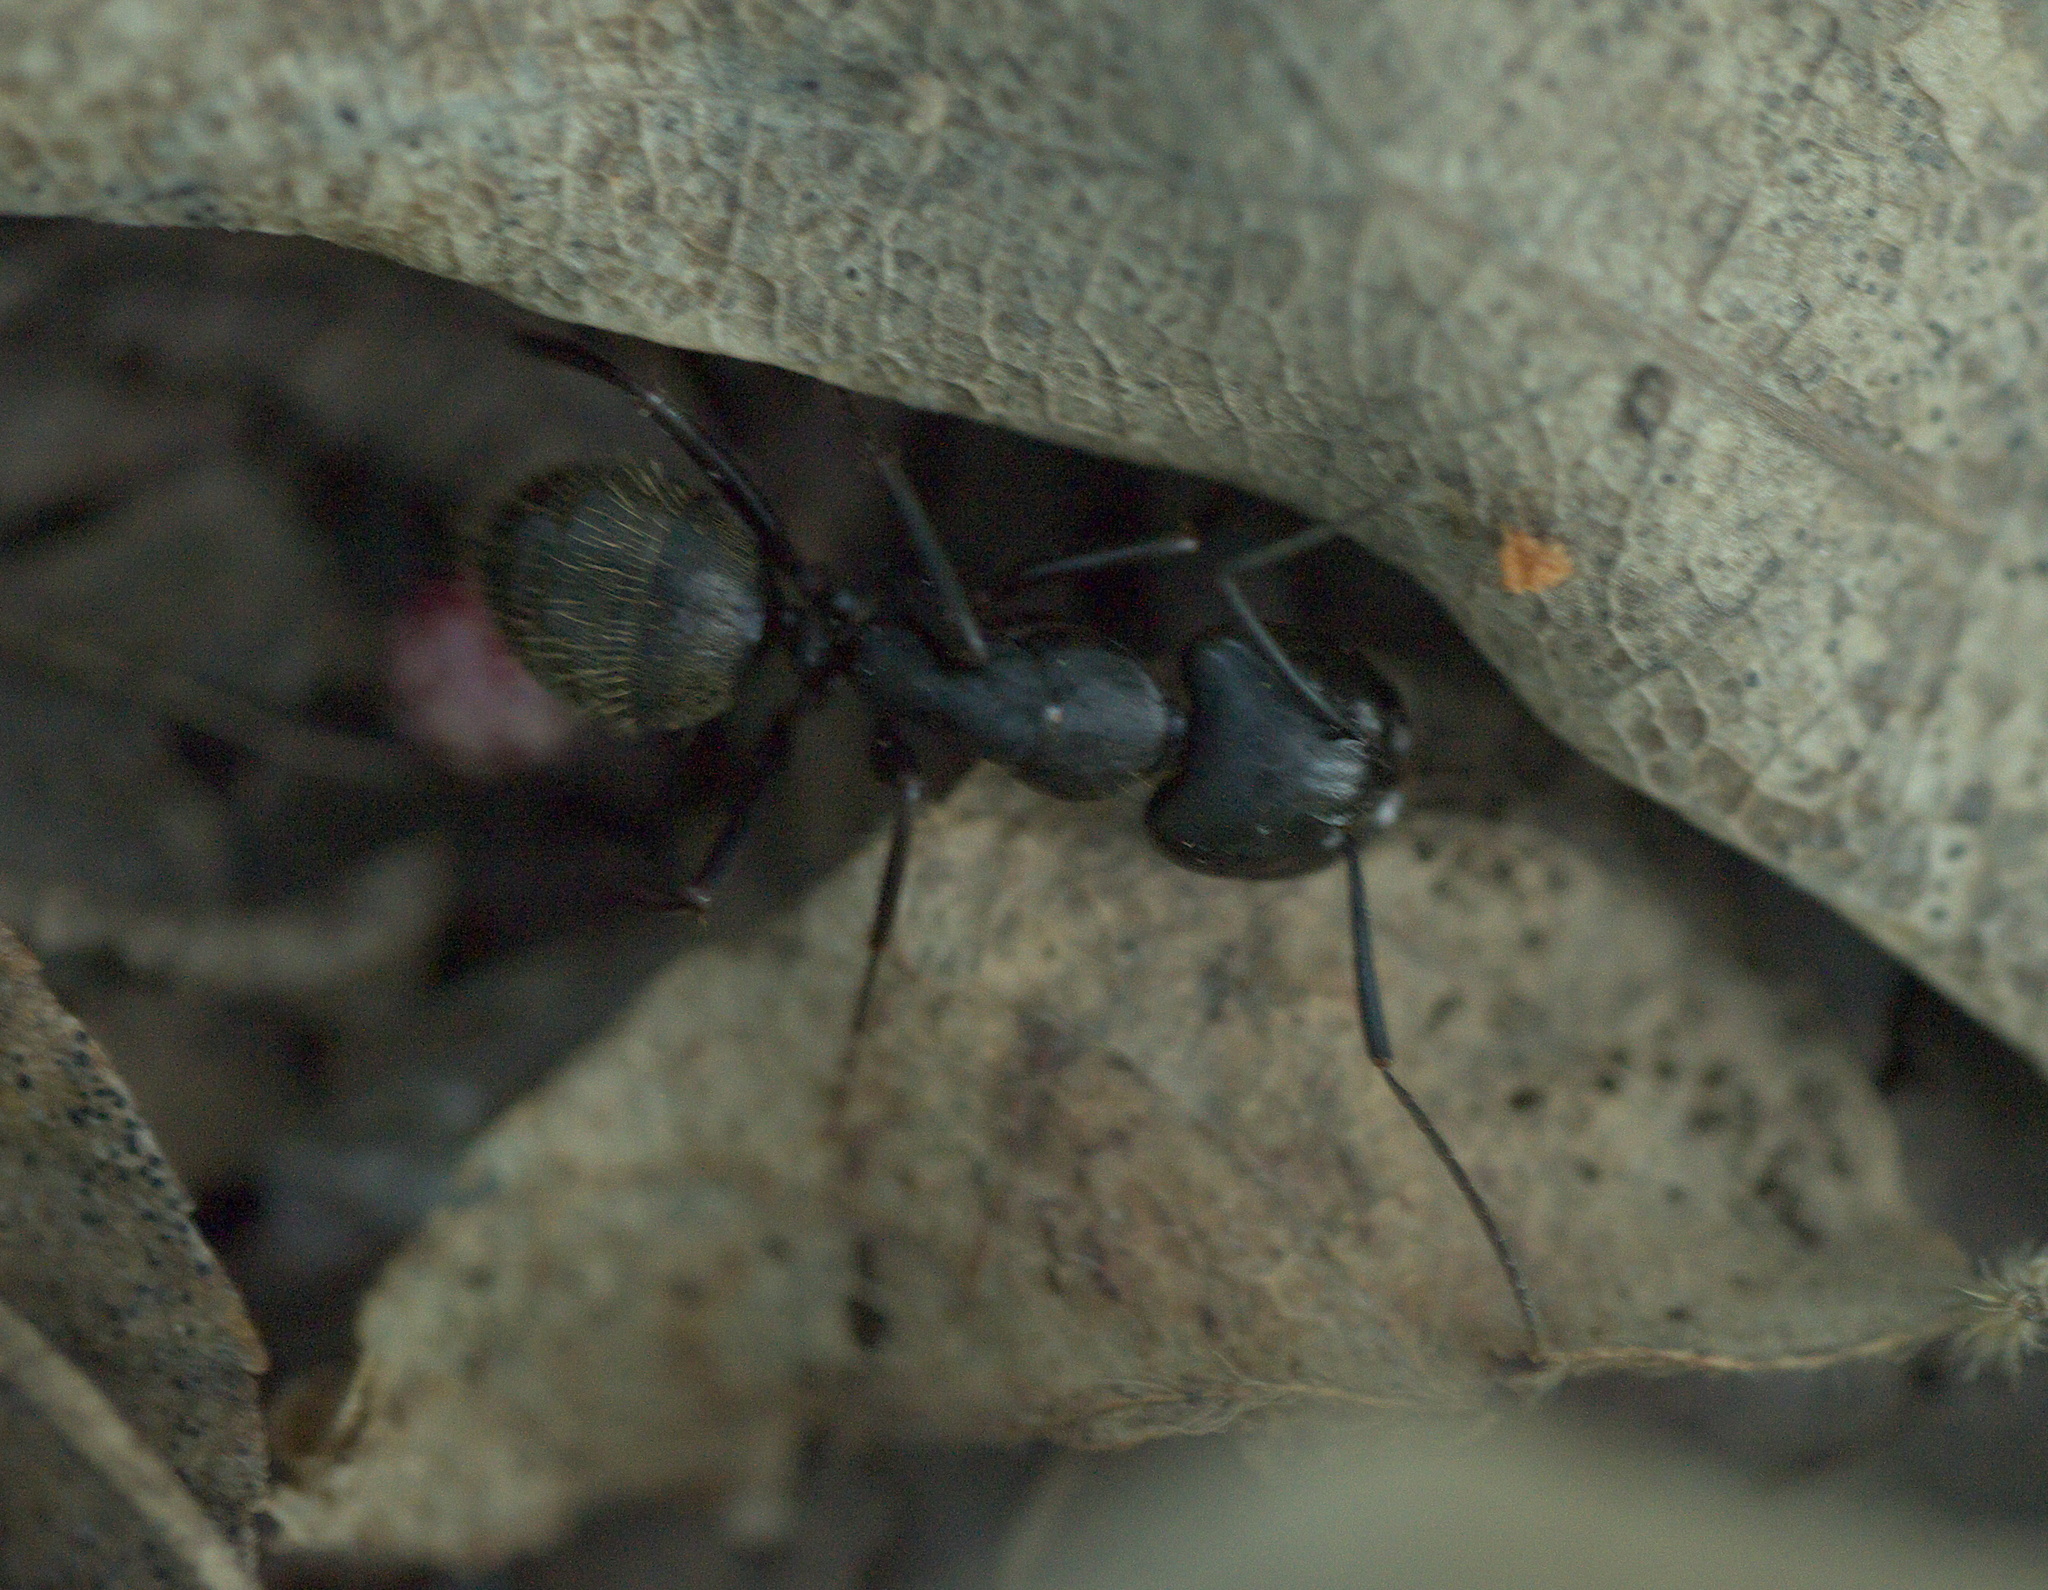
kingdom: Animalia
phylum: Arthropoda
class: Insecta
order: Hymenoptera
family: Formicidae
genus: Camponotus
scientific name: Camponotus pennsylvanicus
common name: Black carpenter ant
